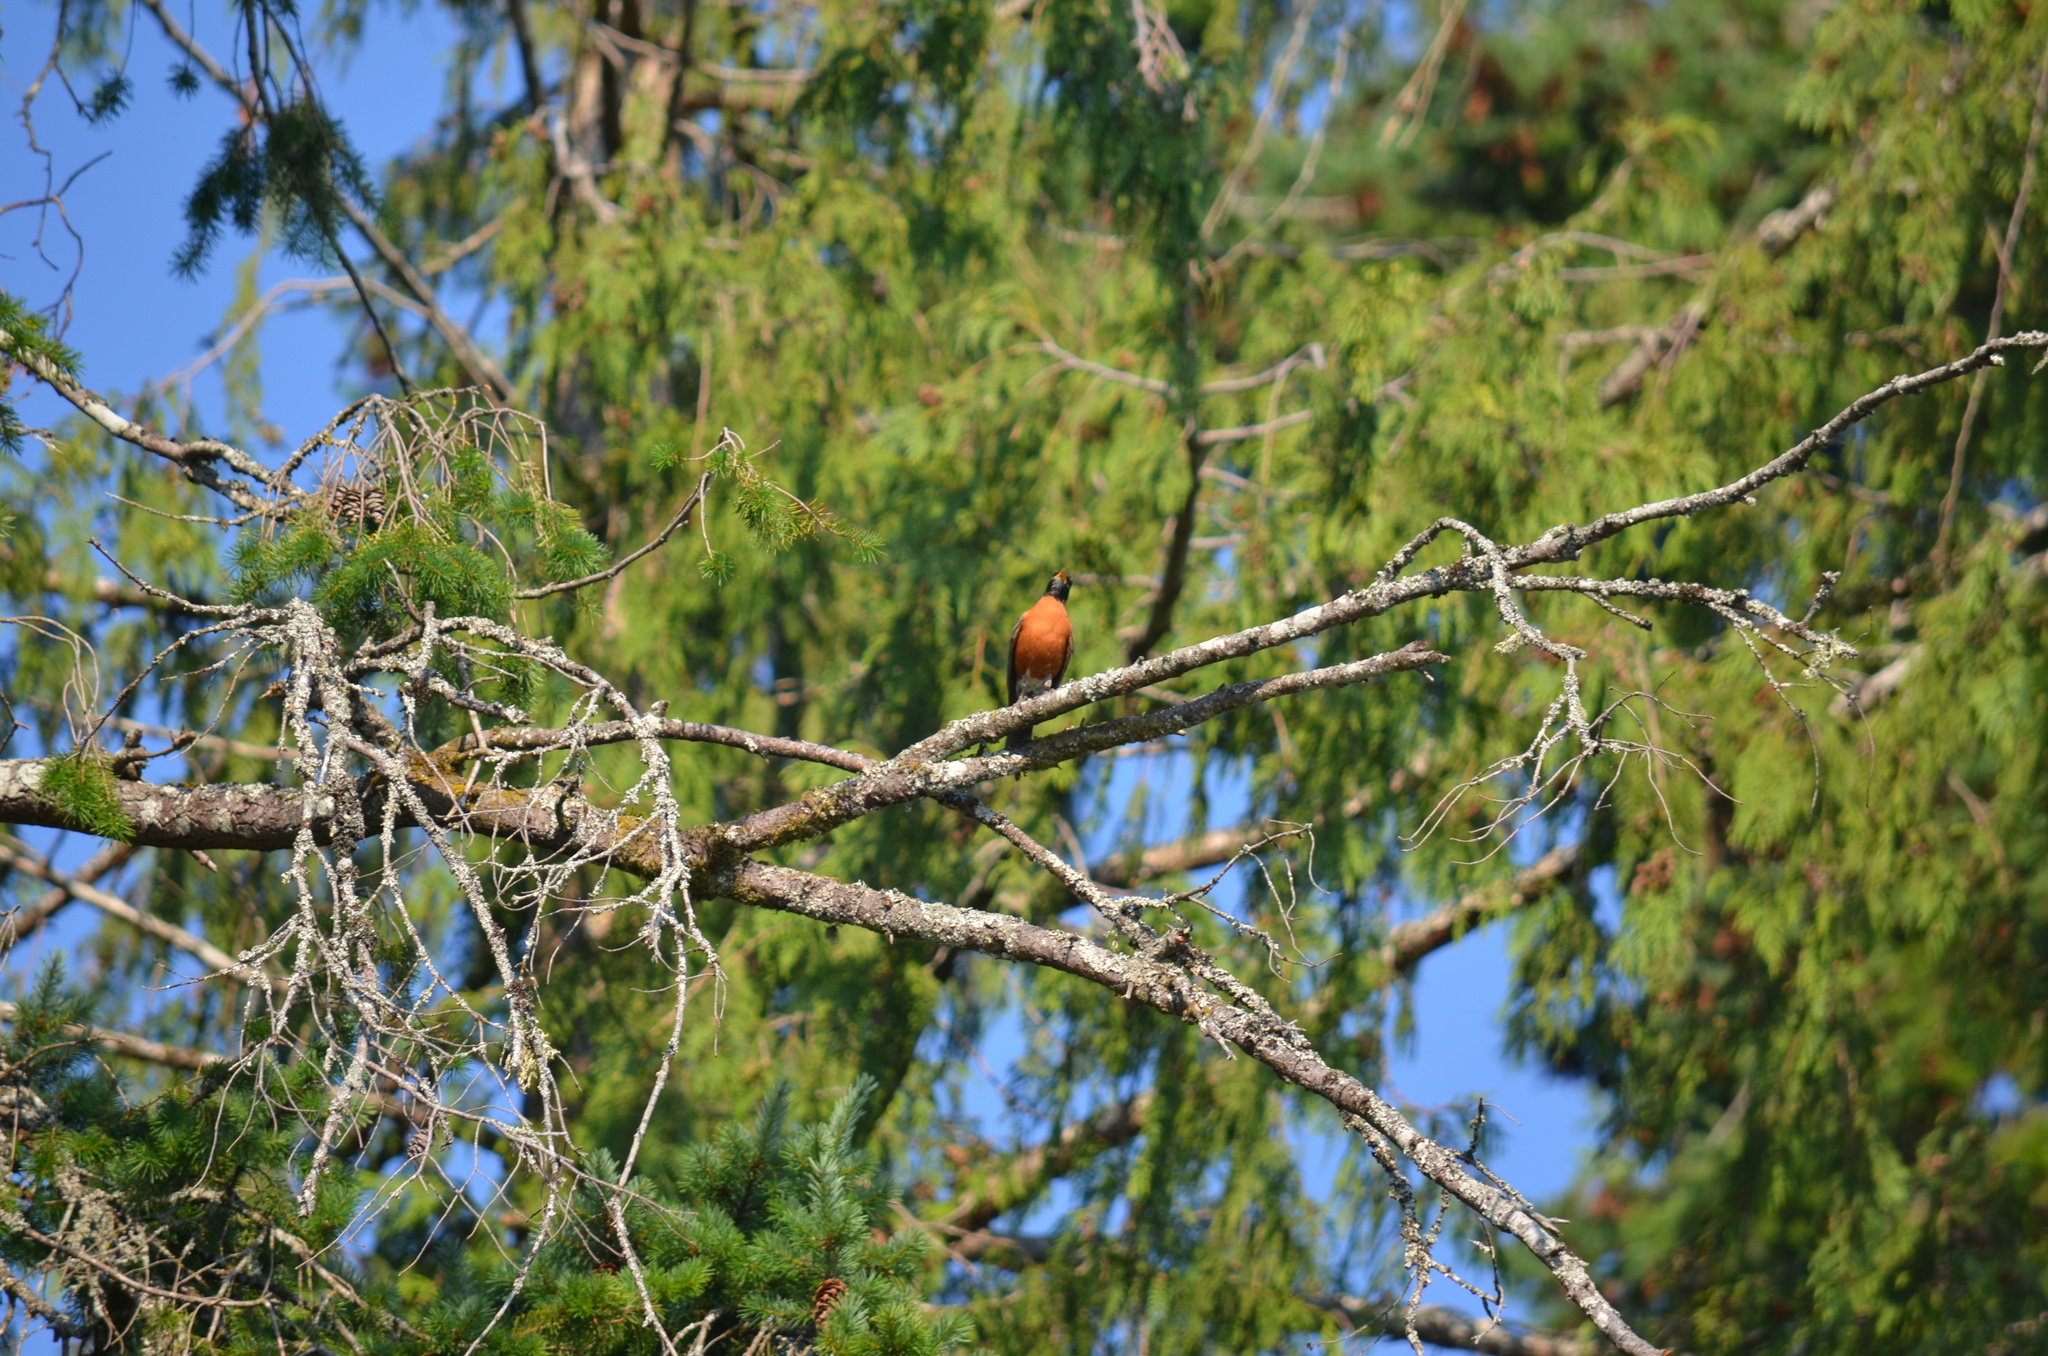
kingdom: Animalia
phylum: Chordata
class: Aves
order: Passeriformes
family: Turdidae
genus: Turdus
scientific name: Turdus migratorius
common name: American robin
